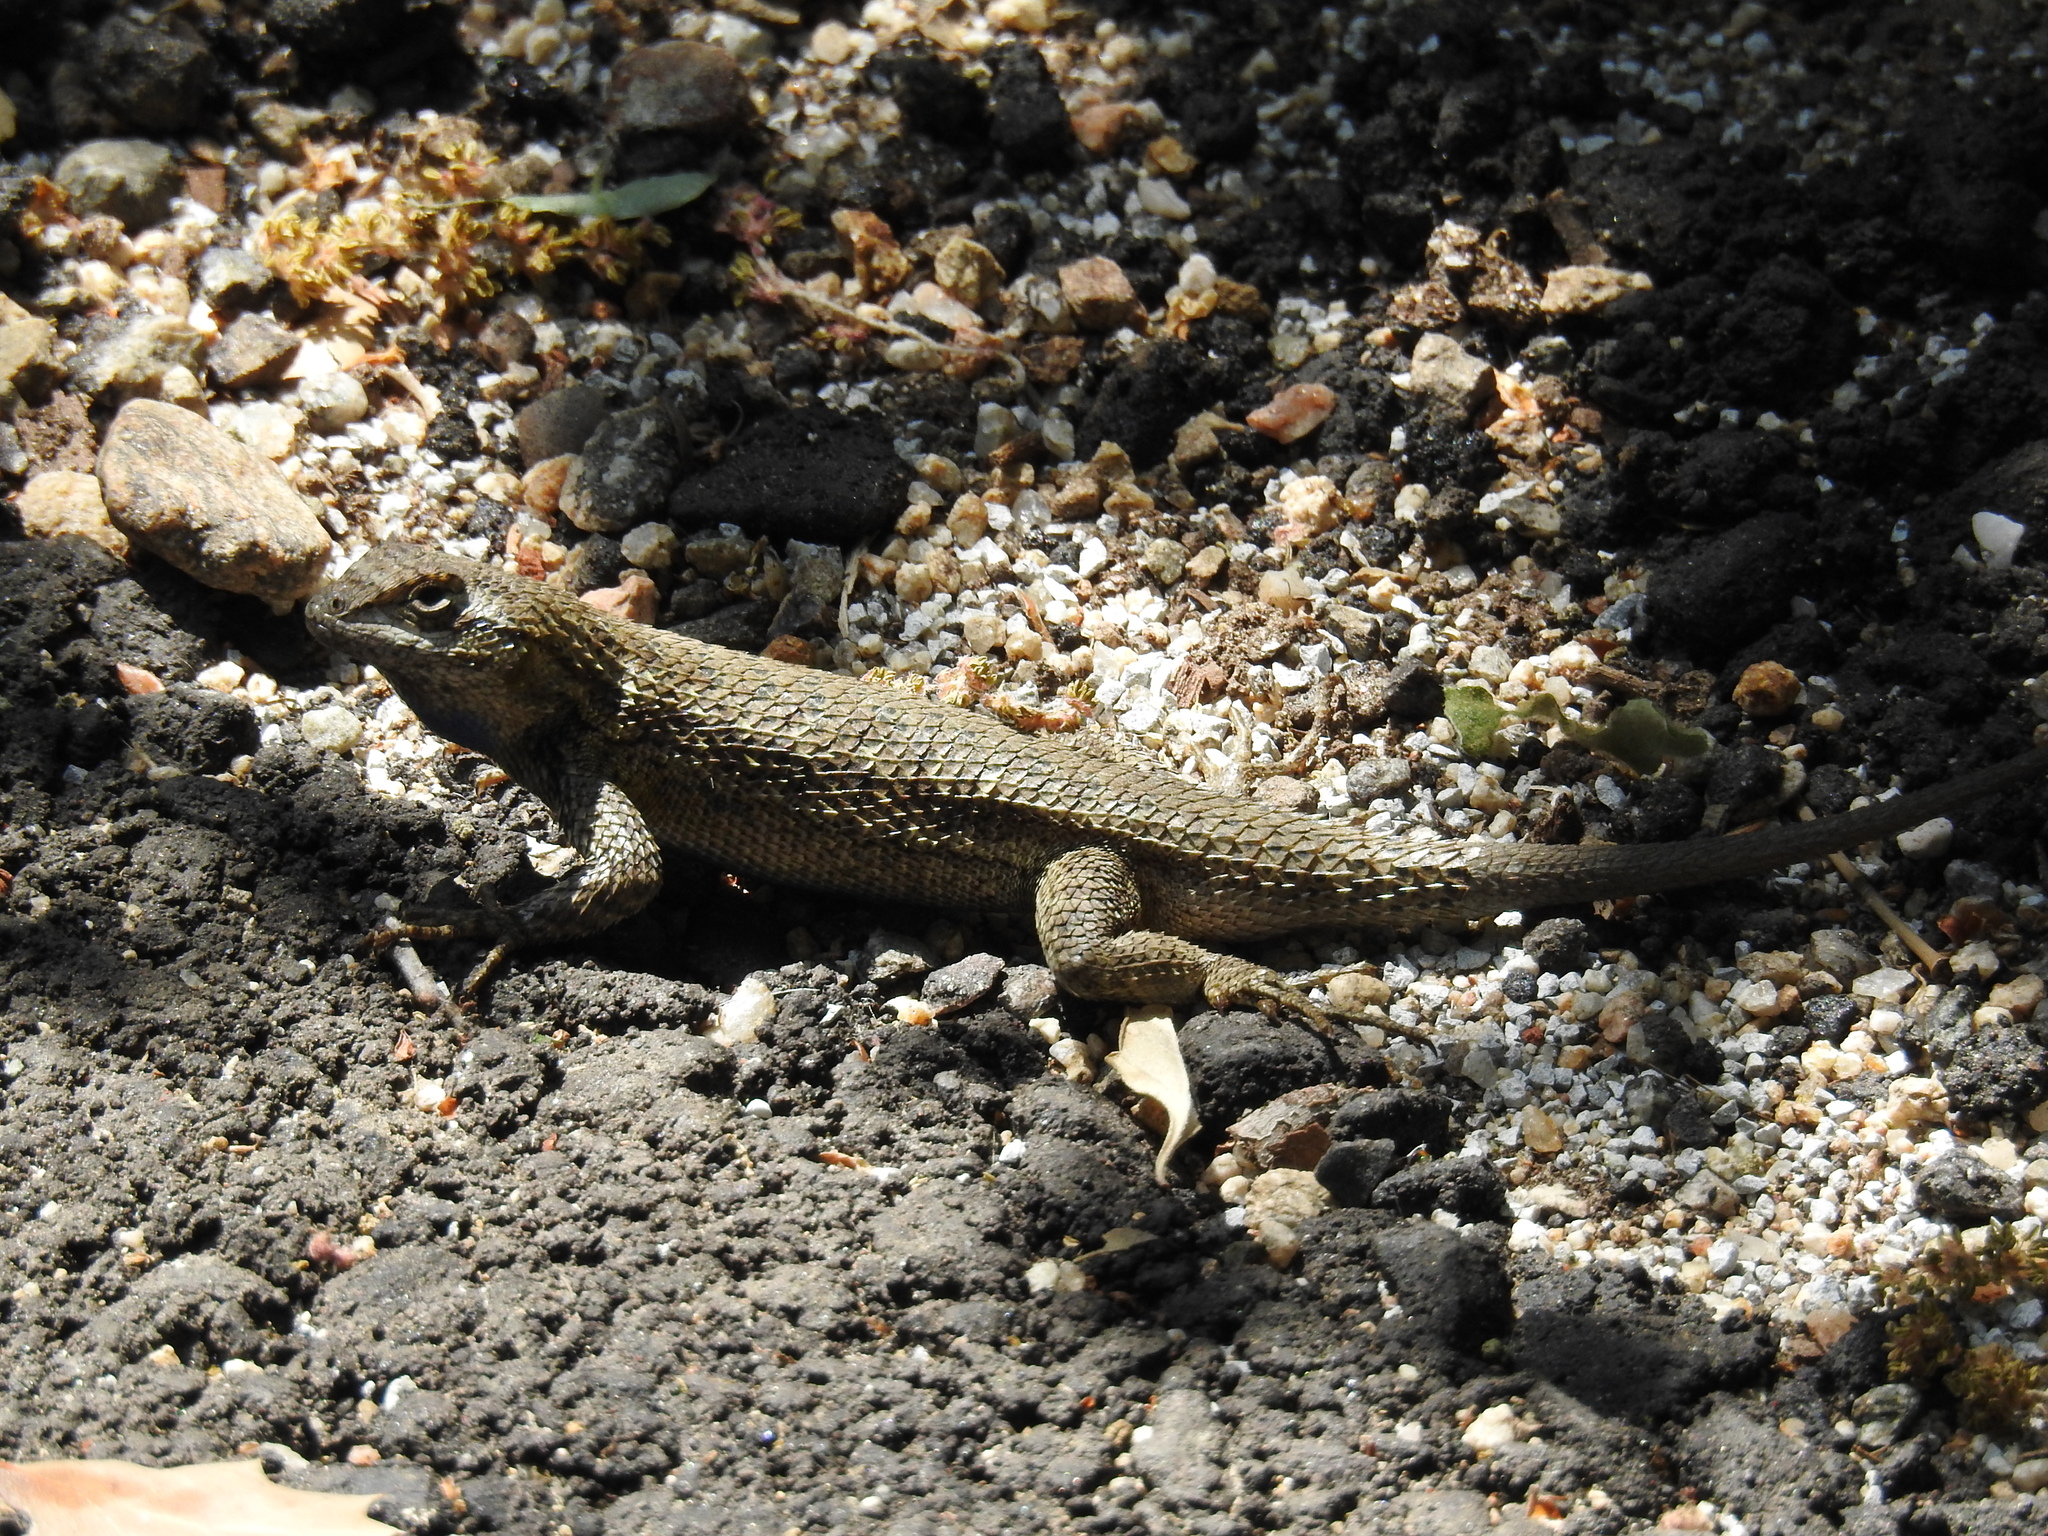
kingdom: Animalia
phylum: Chordata
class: Squamata
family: Phrynosomatidae
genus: Sceloporus
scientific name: Sceloporus occidentalis
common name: Western fence lizard
